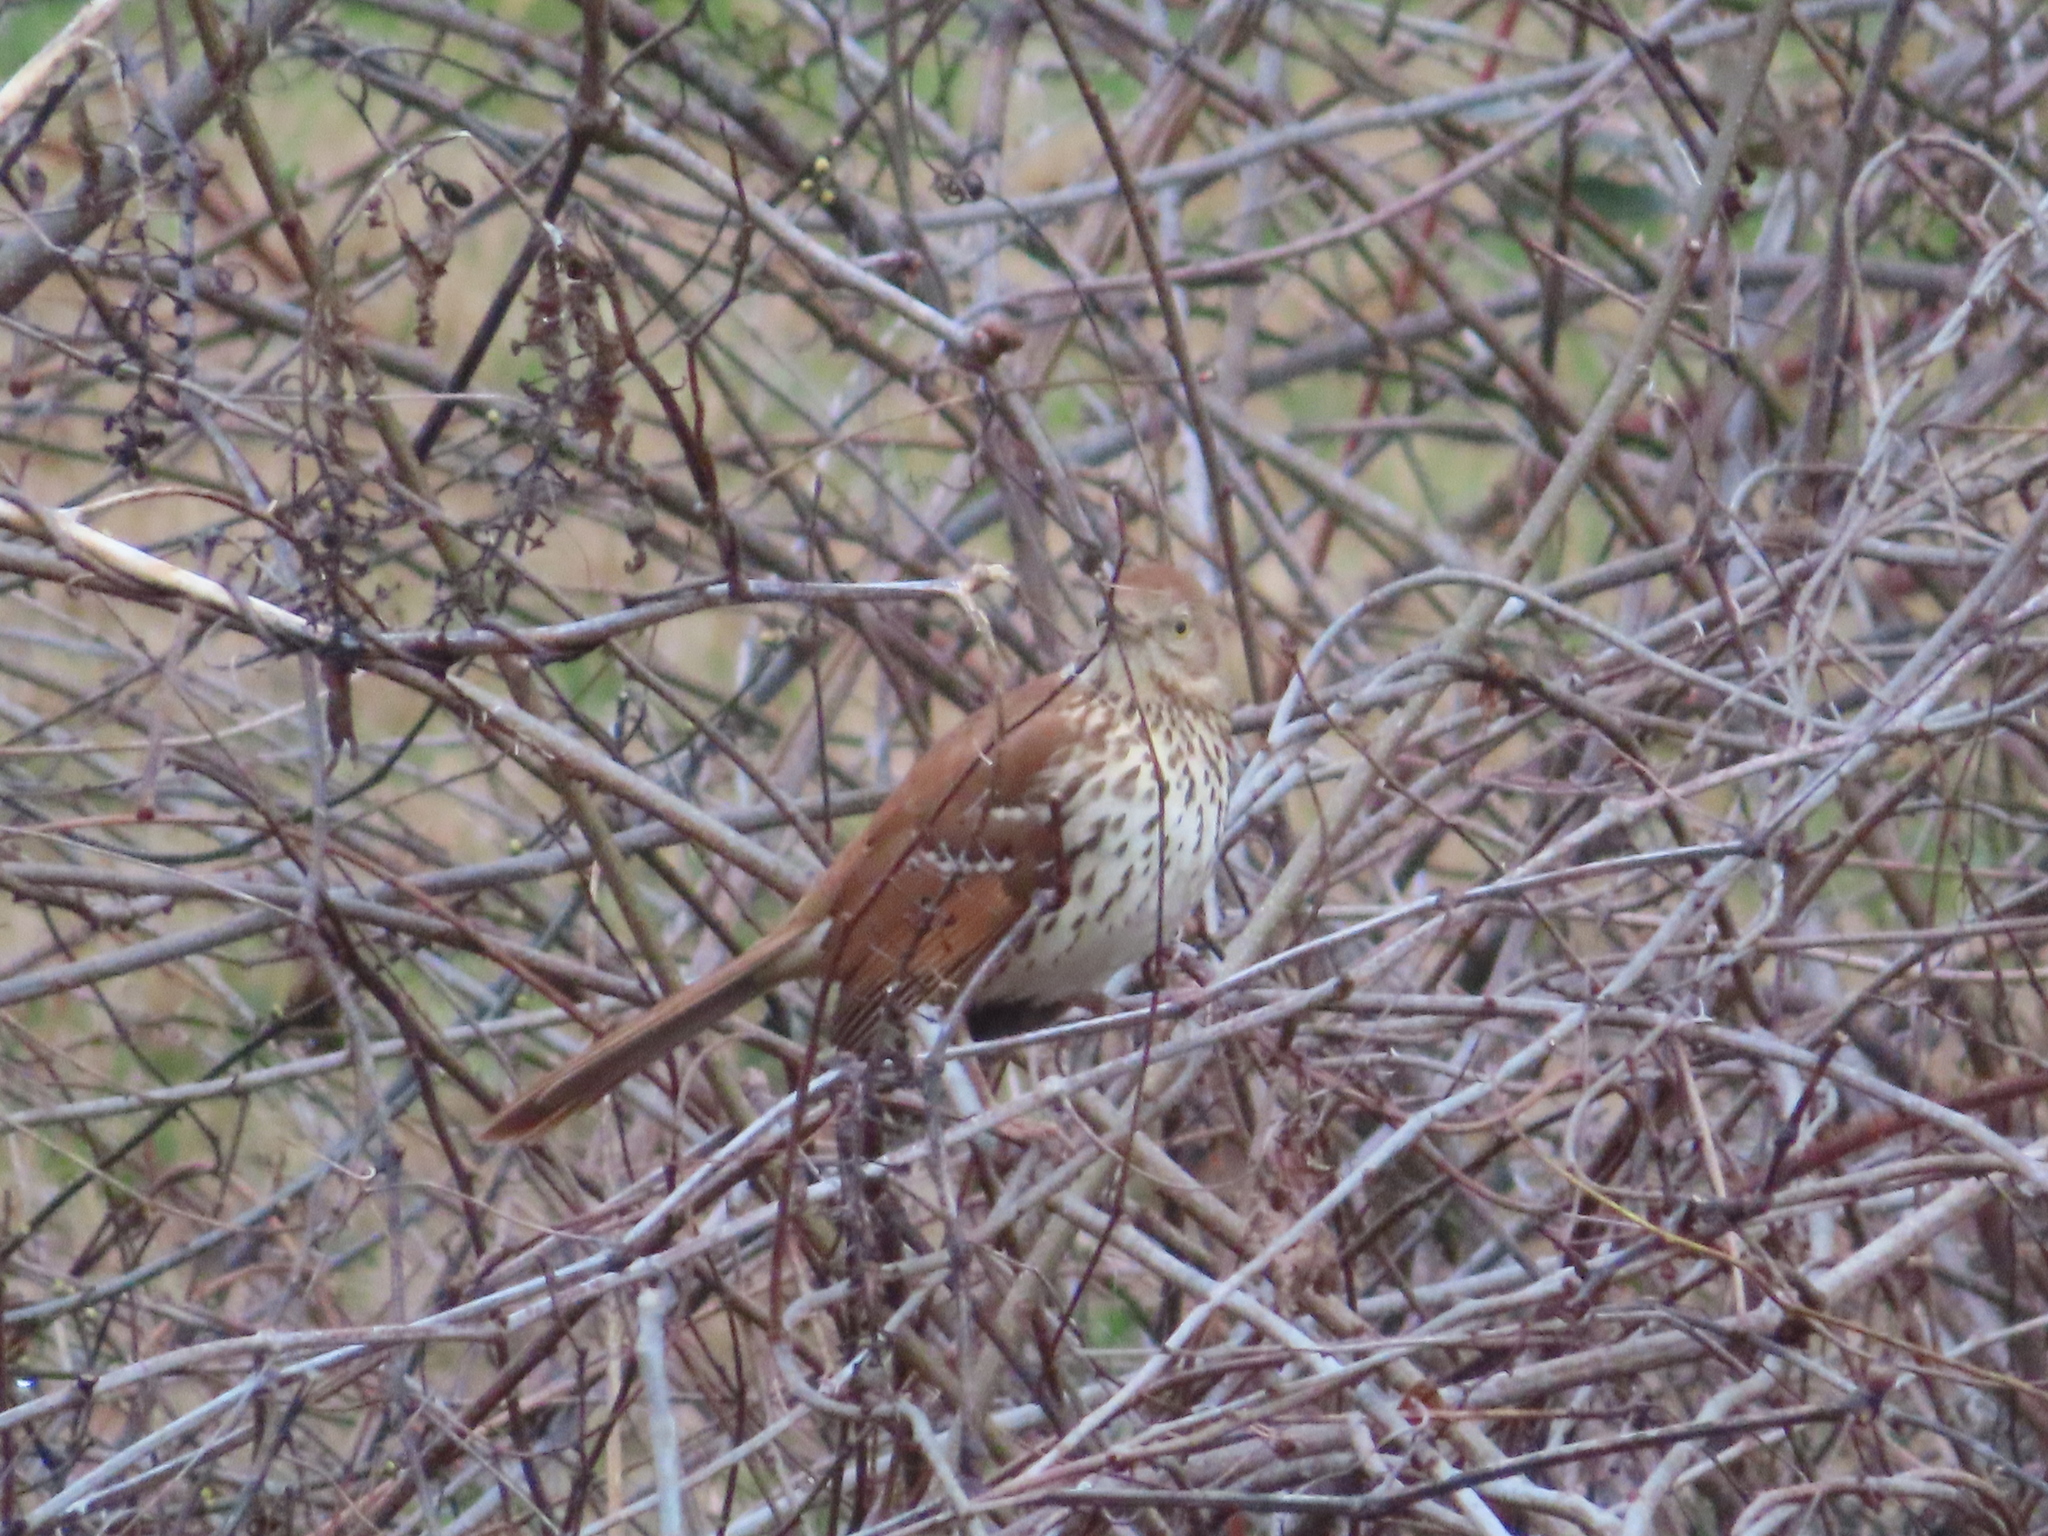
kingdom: Animalia
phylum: Chordata
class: Aves
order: Passeriformes
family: Mimidae
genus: Toxostoma
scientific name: Toxostoma rufum
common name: Brown thrasher
